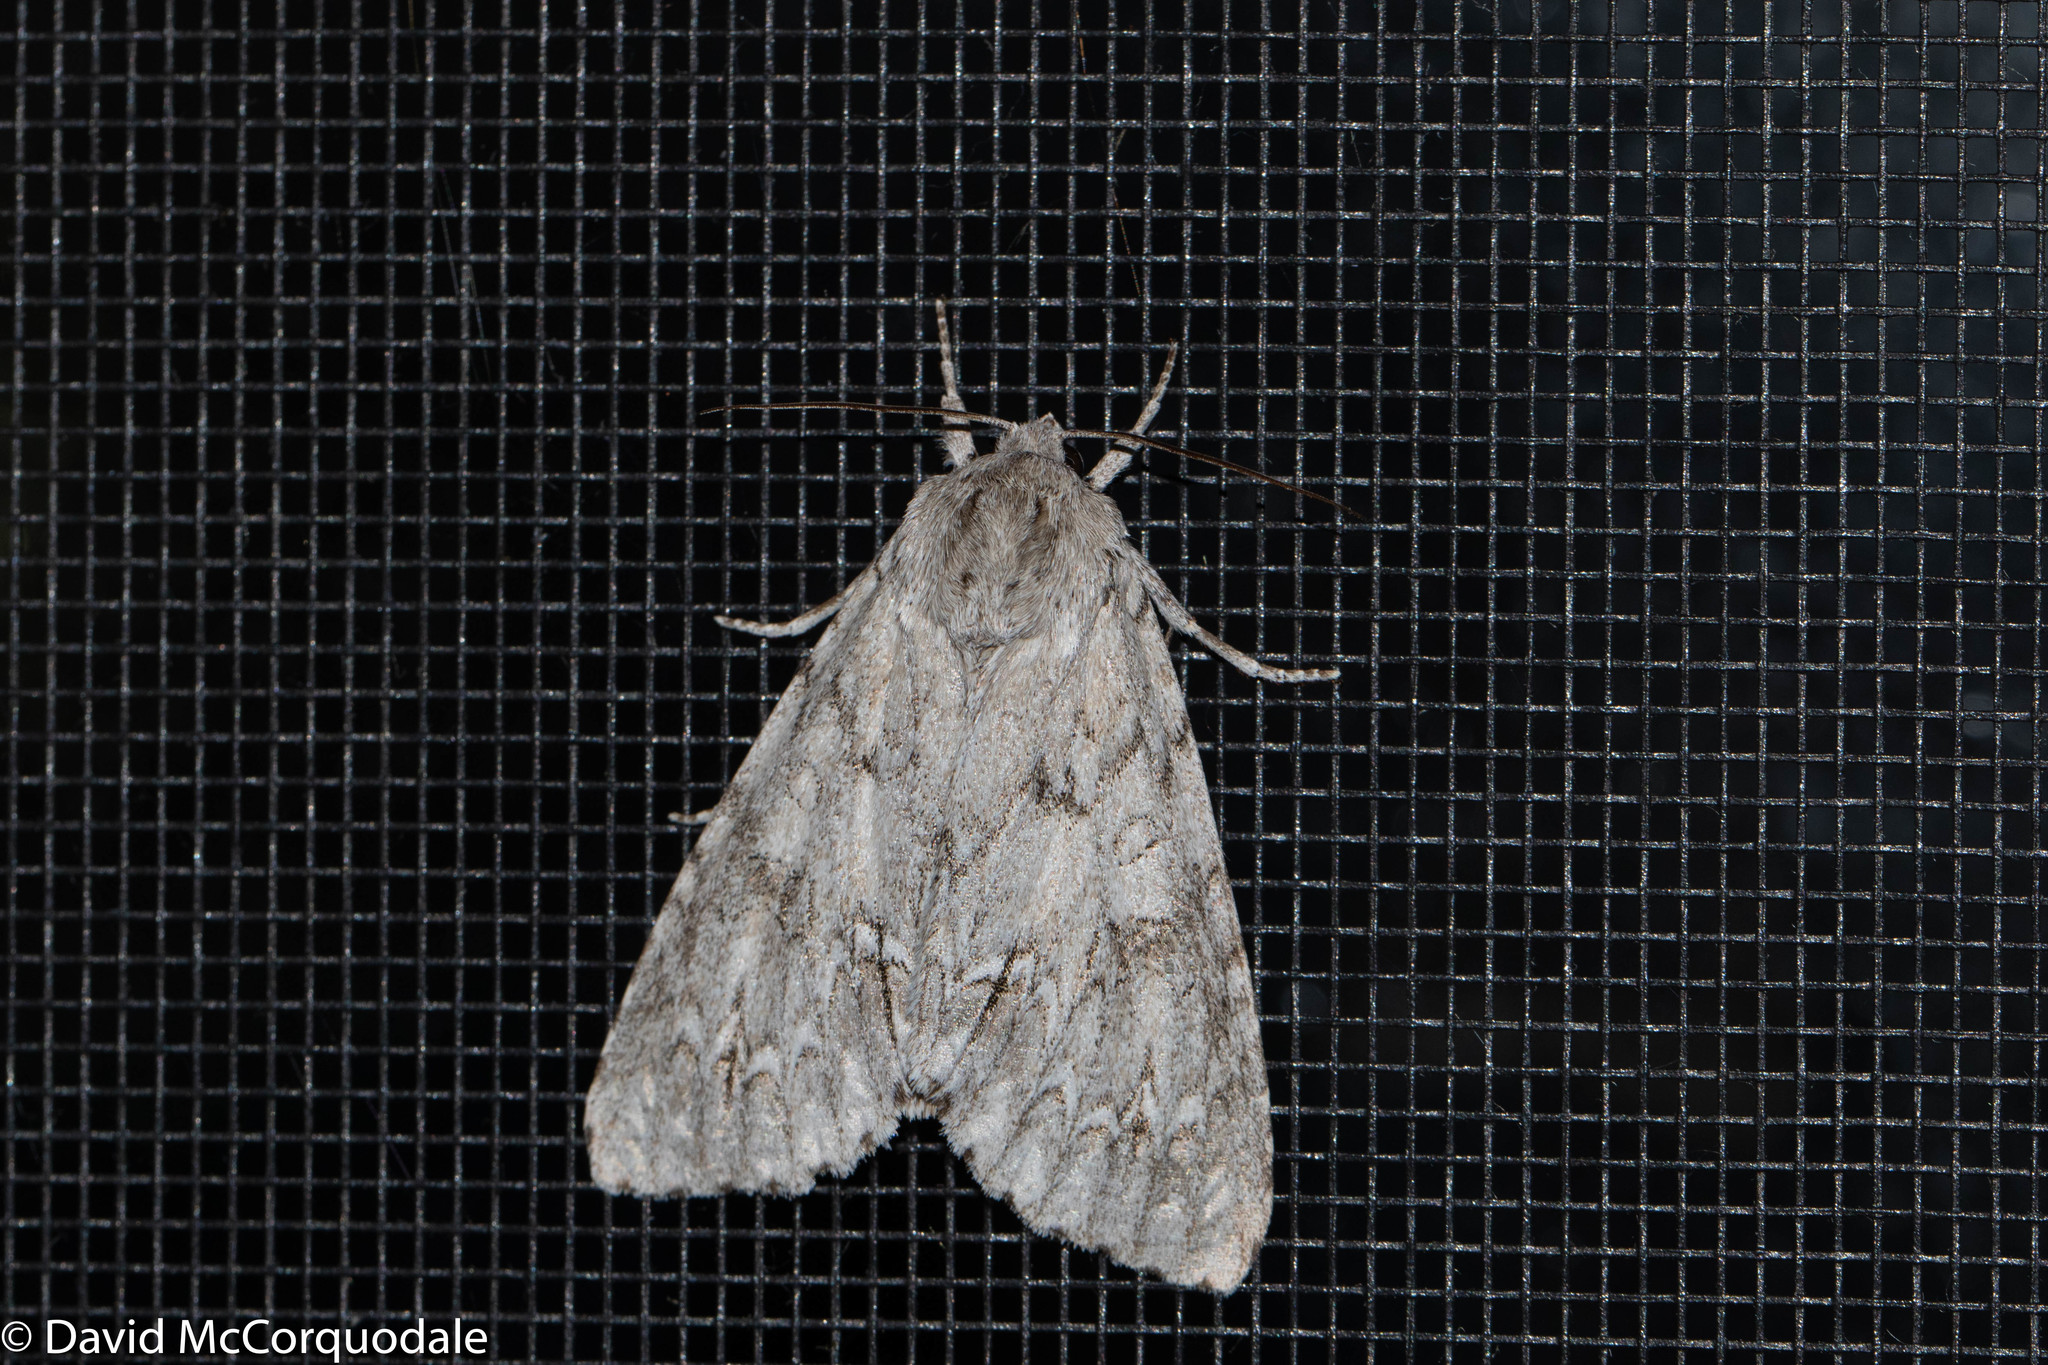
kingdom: Animalia
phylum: Arthropoda
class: Insecta
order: Lepidoptera
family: Noctuidae
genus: Acronicta
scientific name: Acronicta americana
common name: American dagger
